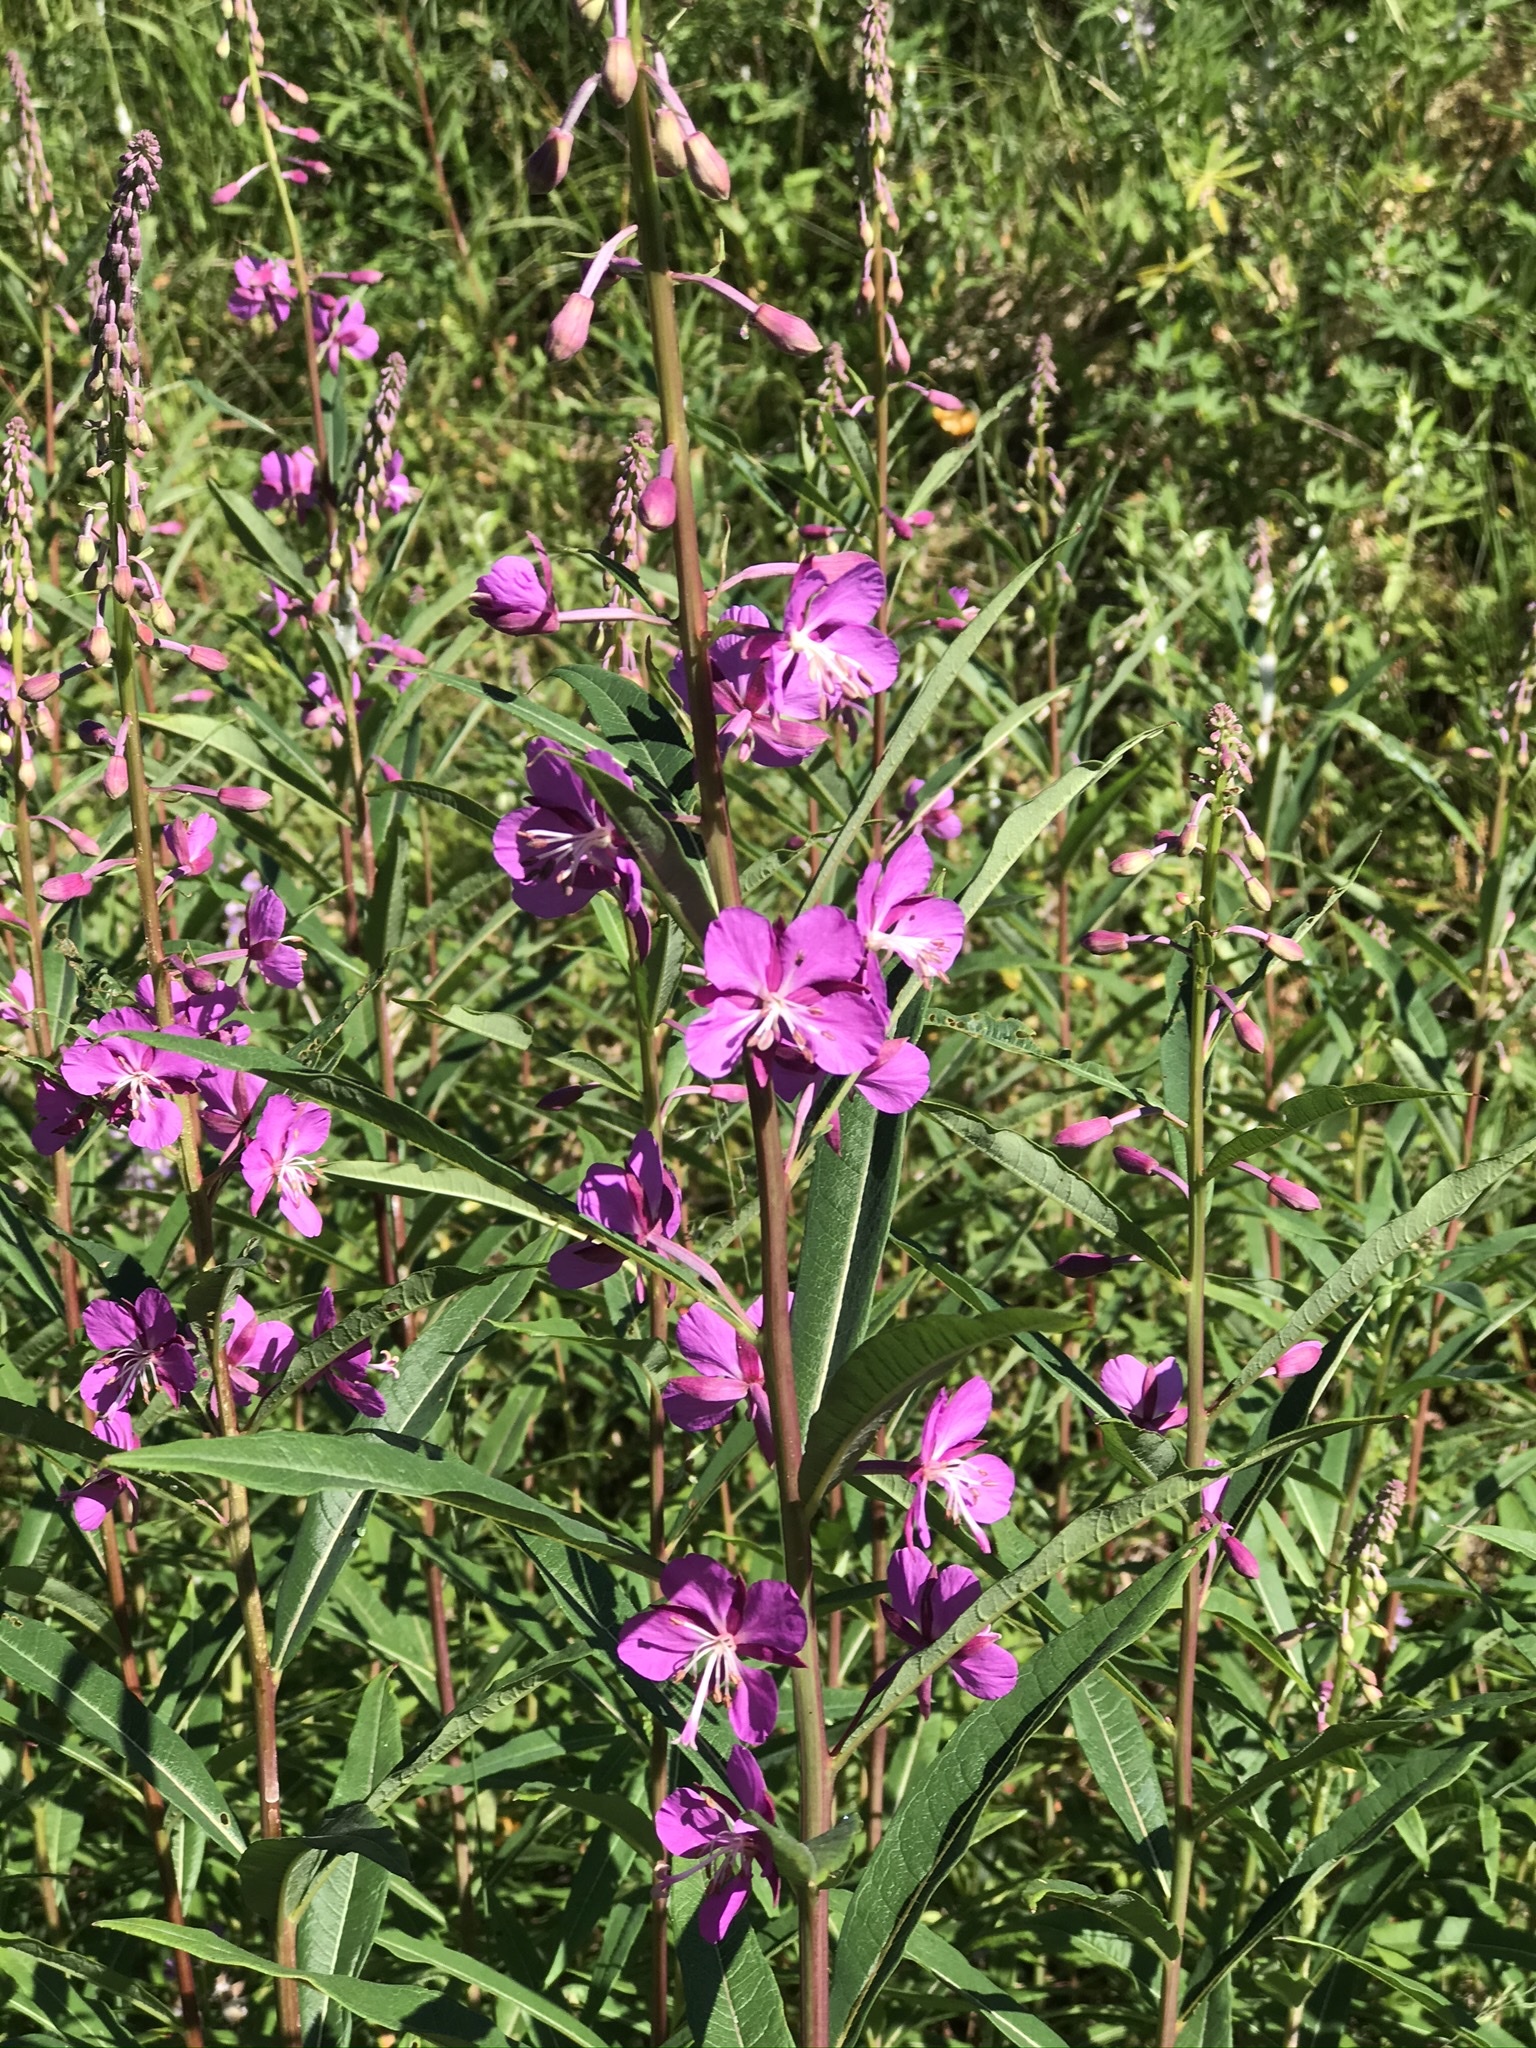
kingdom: Plantae
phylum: Tracheophyta
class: Magnoliopsida
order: Myrtales
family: Onagraceae
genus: Chamaenerion
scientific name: Chamaenerion angustifolium
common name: Fireweed
